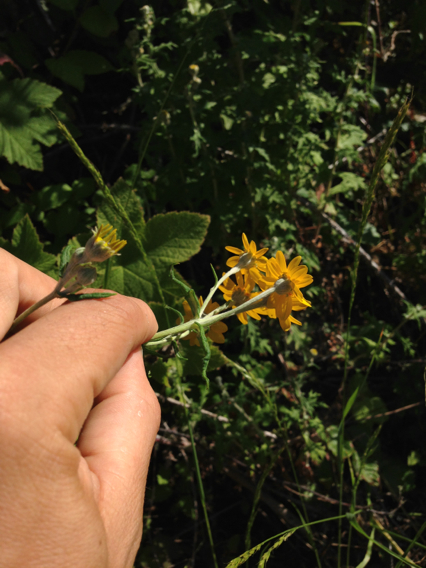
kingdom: Plantae
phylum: Tracheophyta
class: Magnoliopsida
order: Asterales
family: Asteraceae
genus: Eriophyllum
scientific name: Eriophyllum lanatum
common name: Common woolly-sunflower
